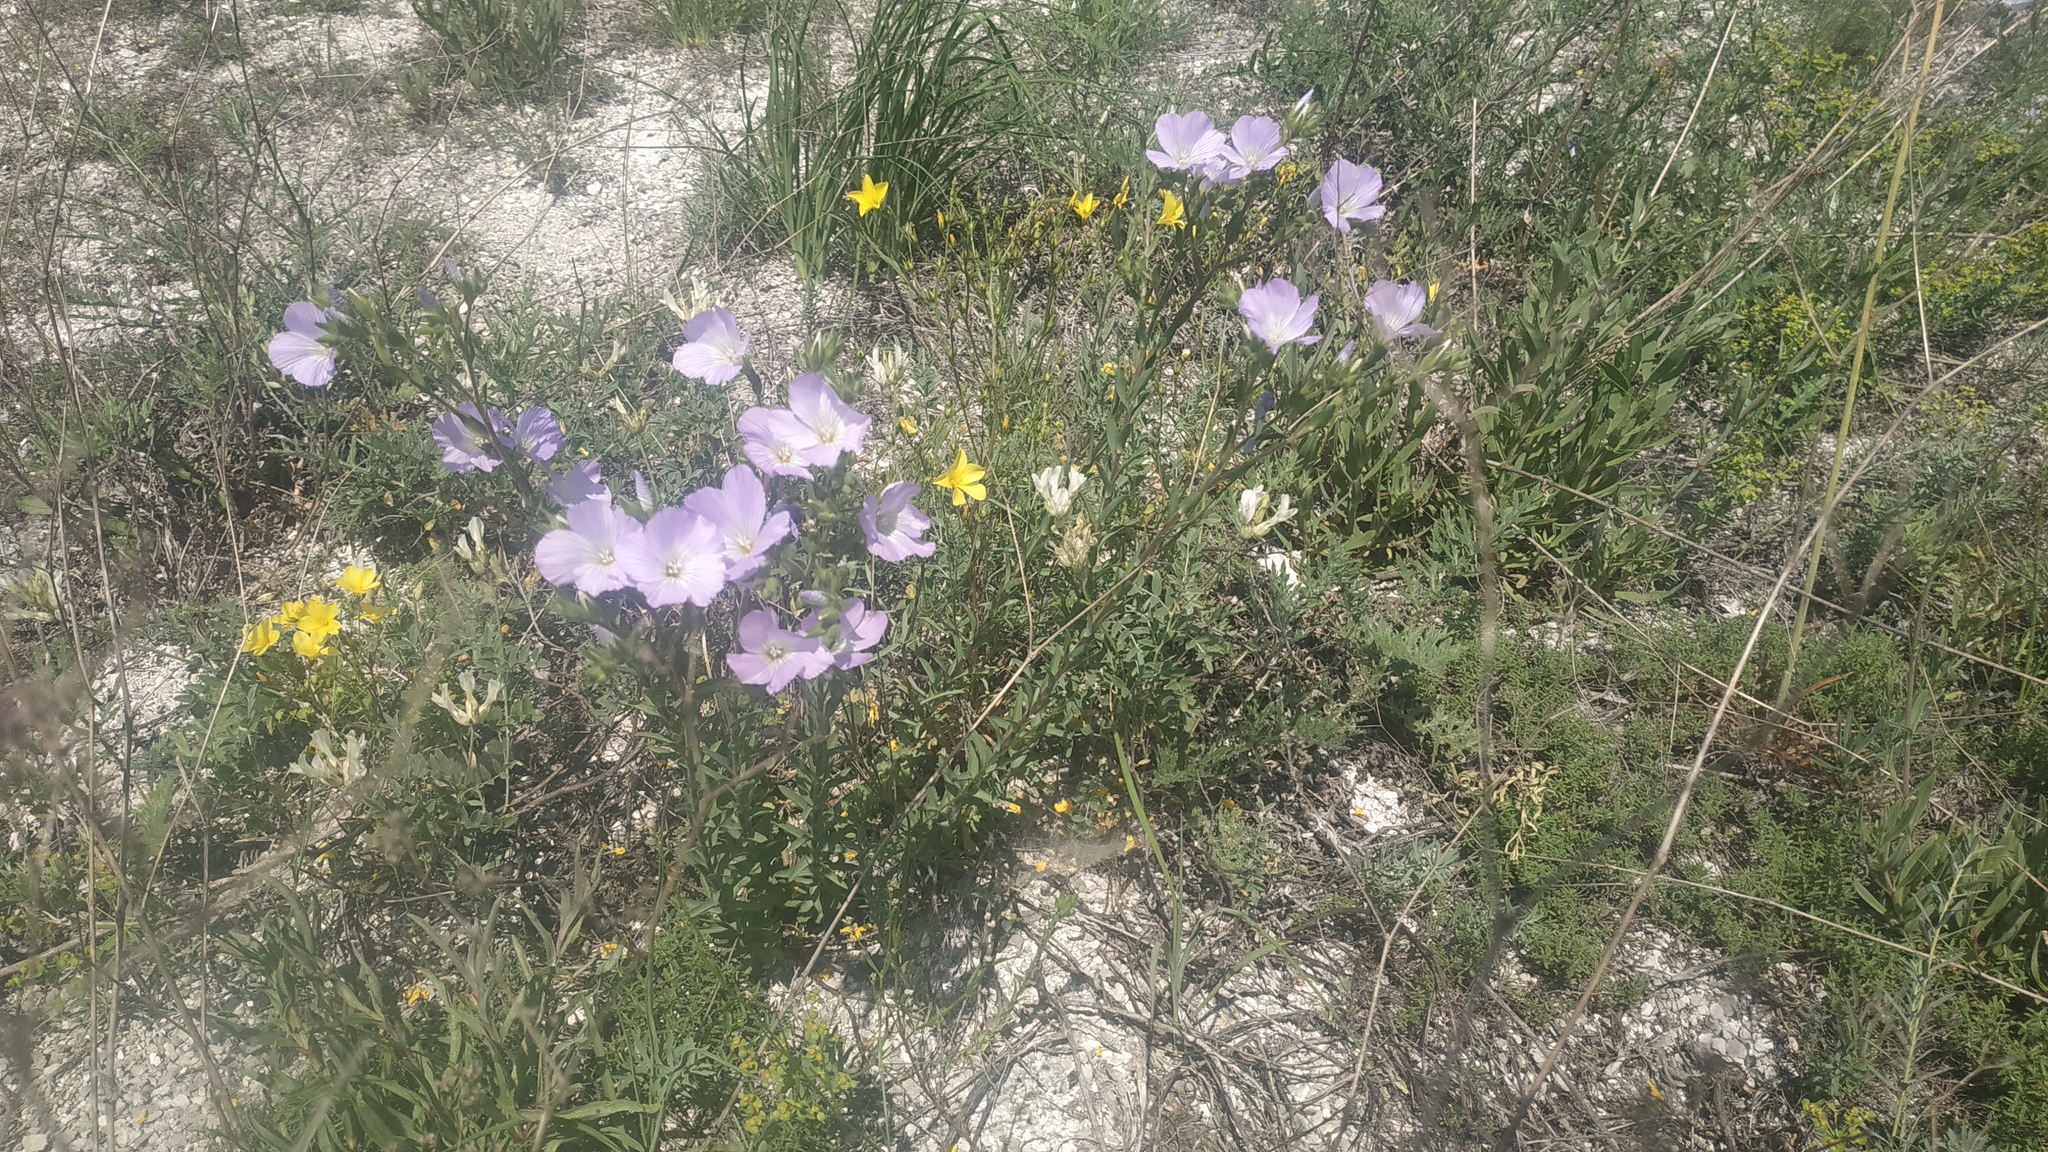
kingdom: Plantae
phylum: Tracheophyta
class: Magnoliopsida
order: Malpighiales
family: Linaceae
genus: Linum
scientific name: Linum hirsutum
